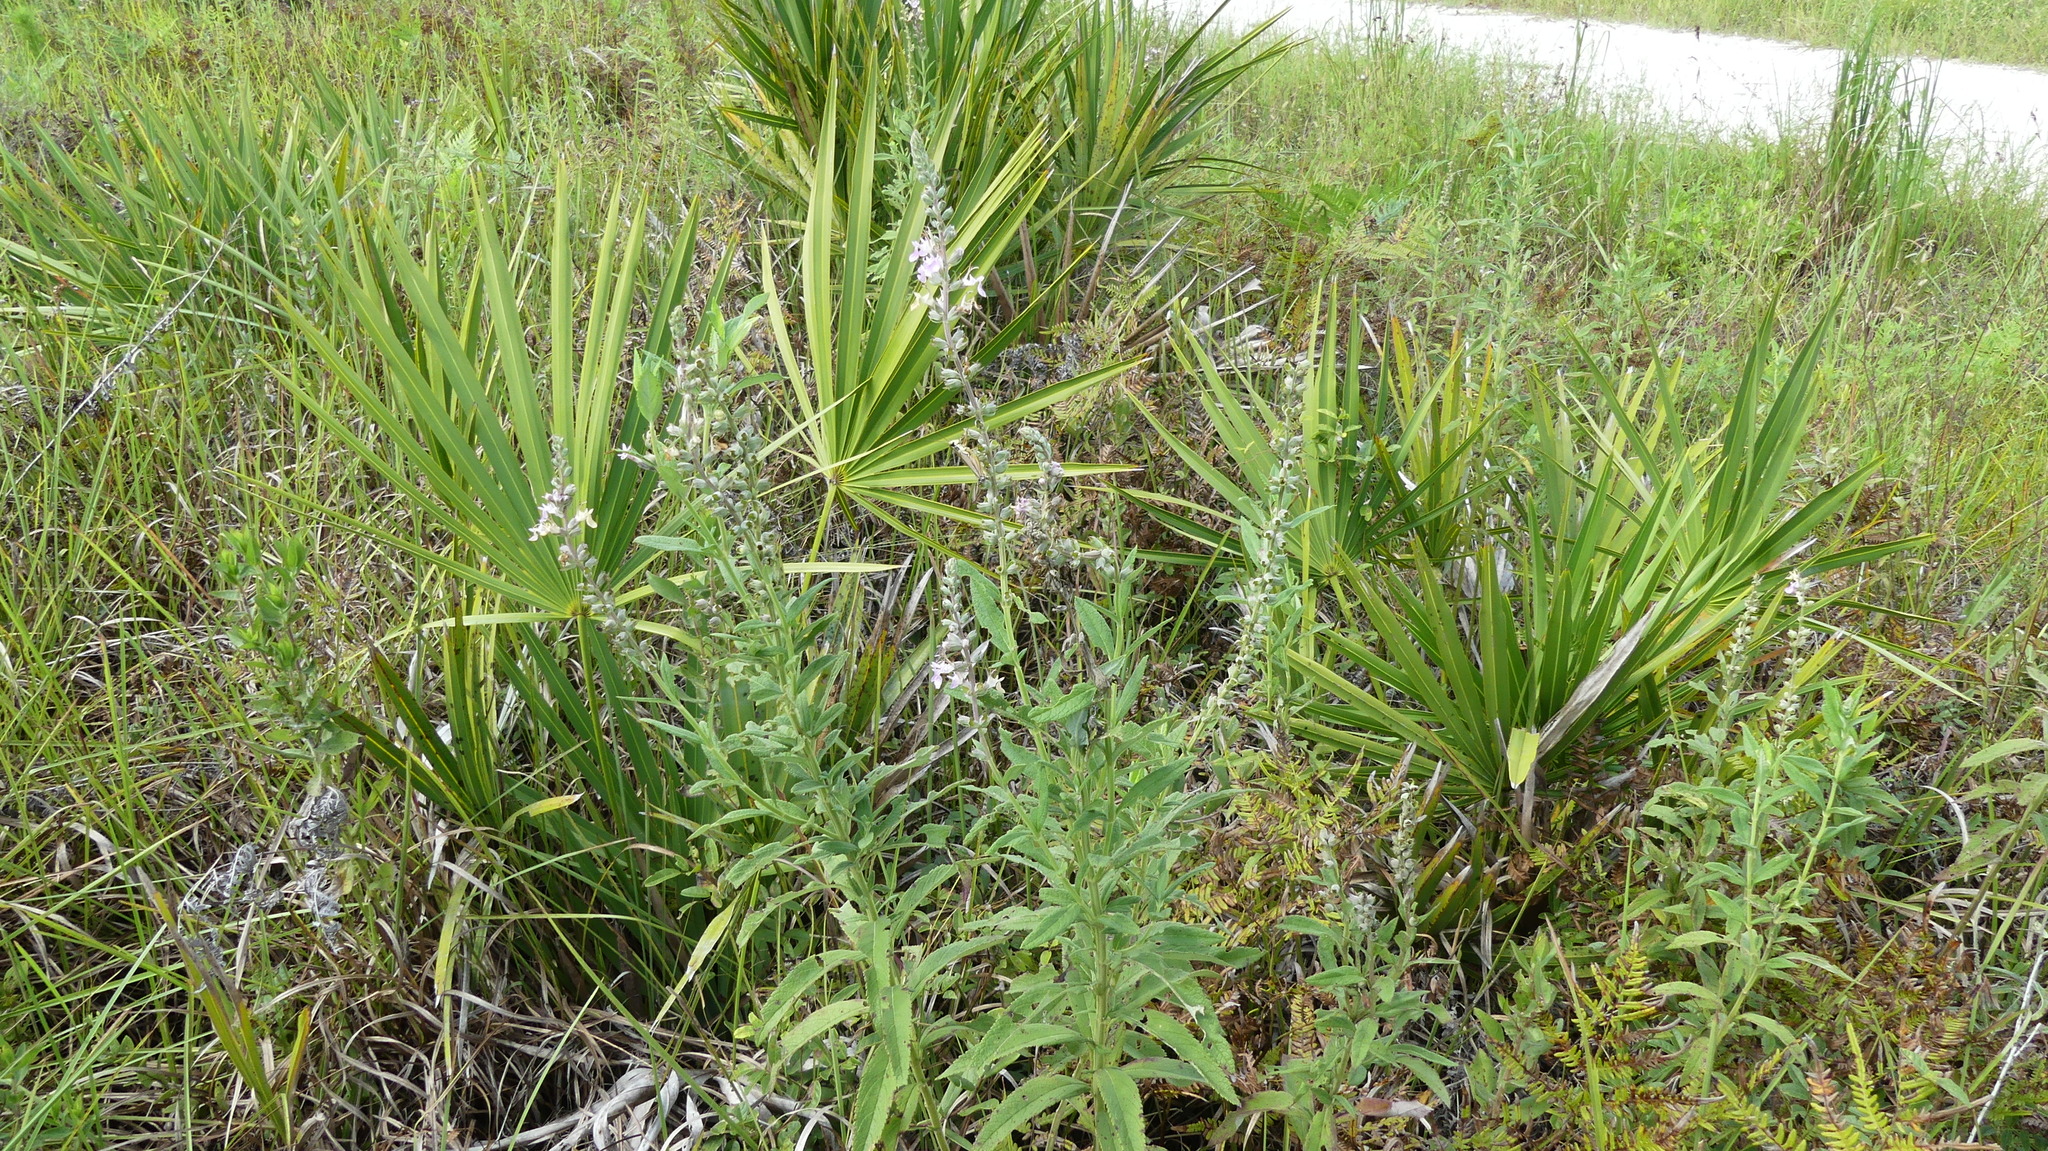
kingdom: Plantae
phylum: Tracheophyta
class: Magnoliopsida
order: Lamiales
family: Lamiaceae
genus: Teucrium
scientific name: Teucrium canadense
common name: American germander
